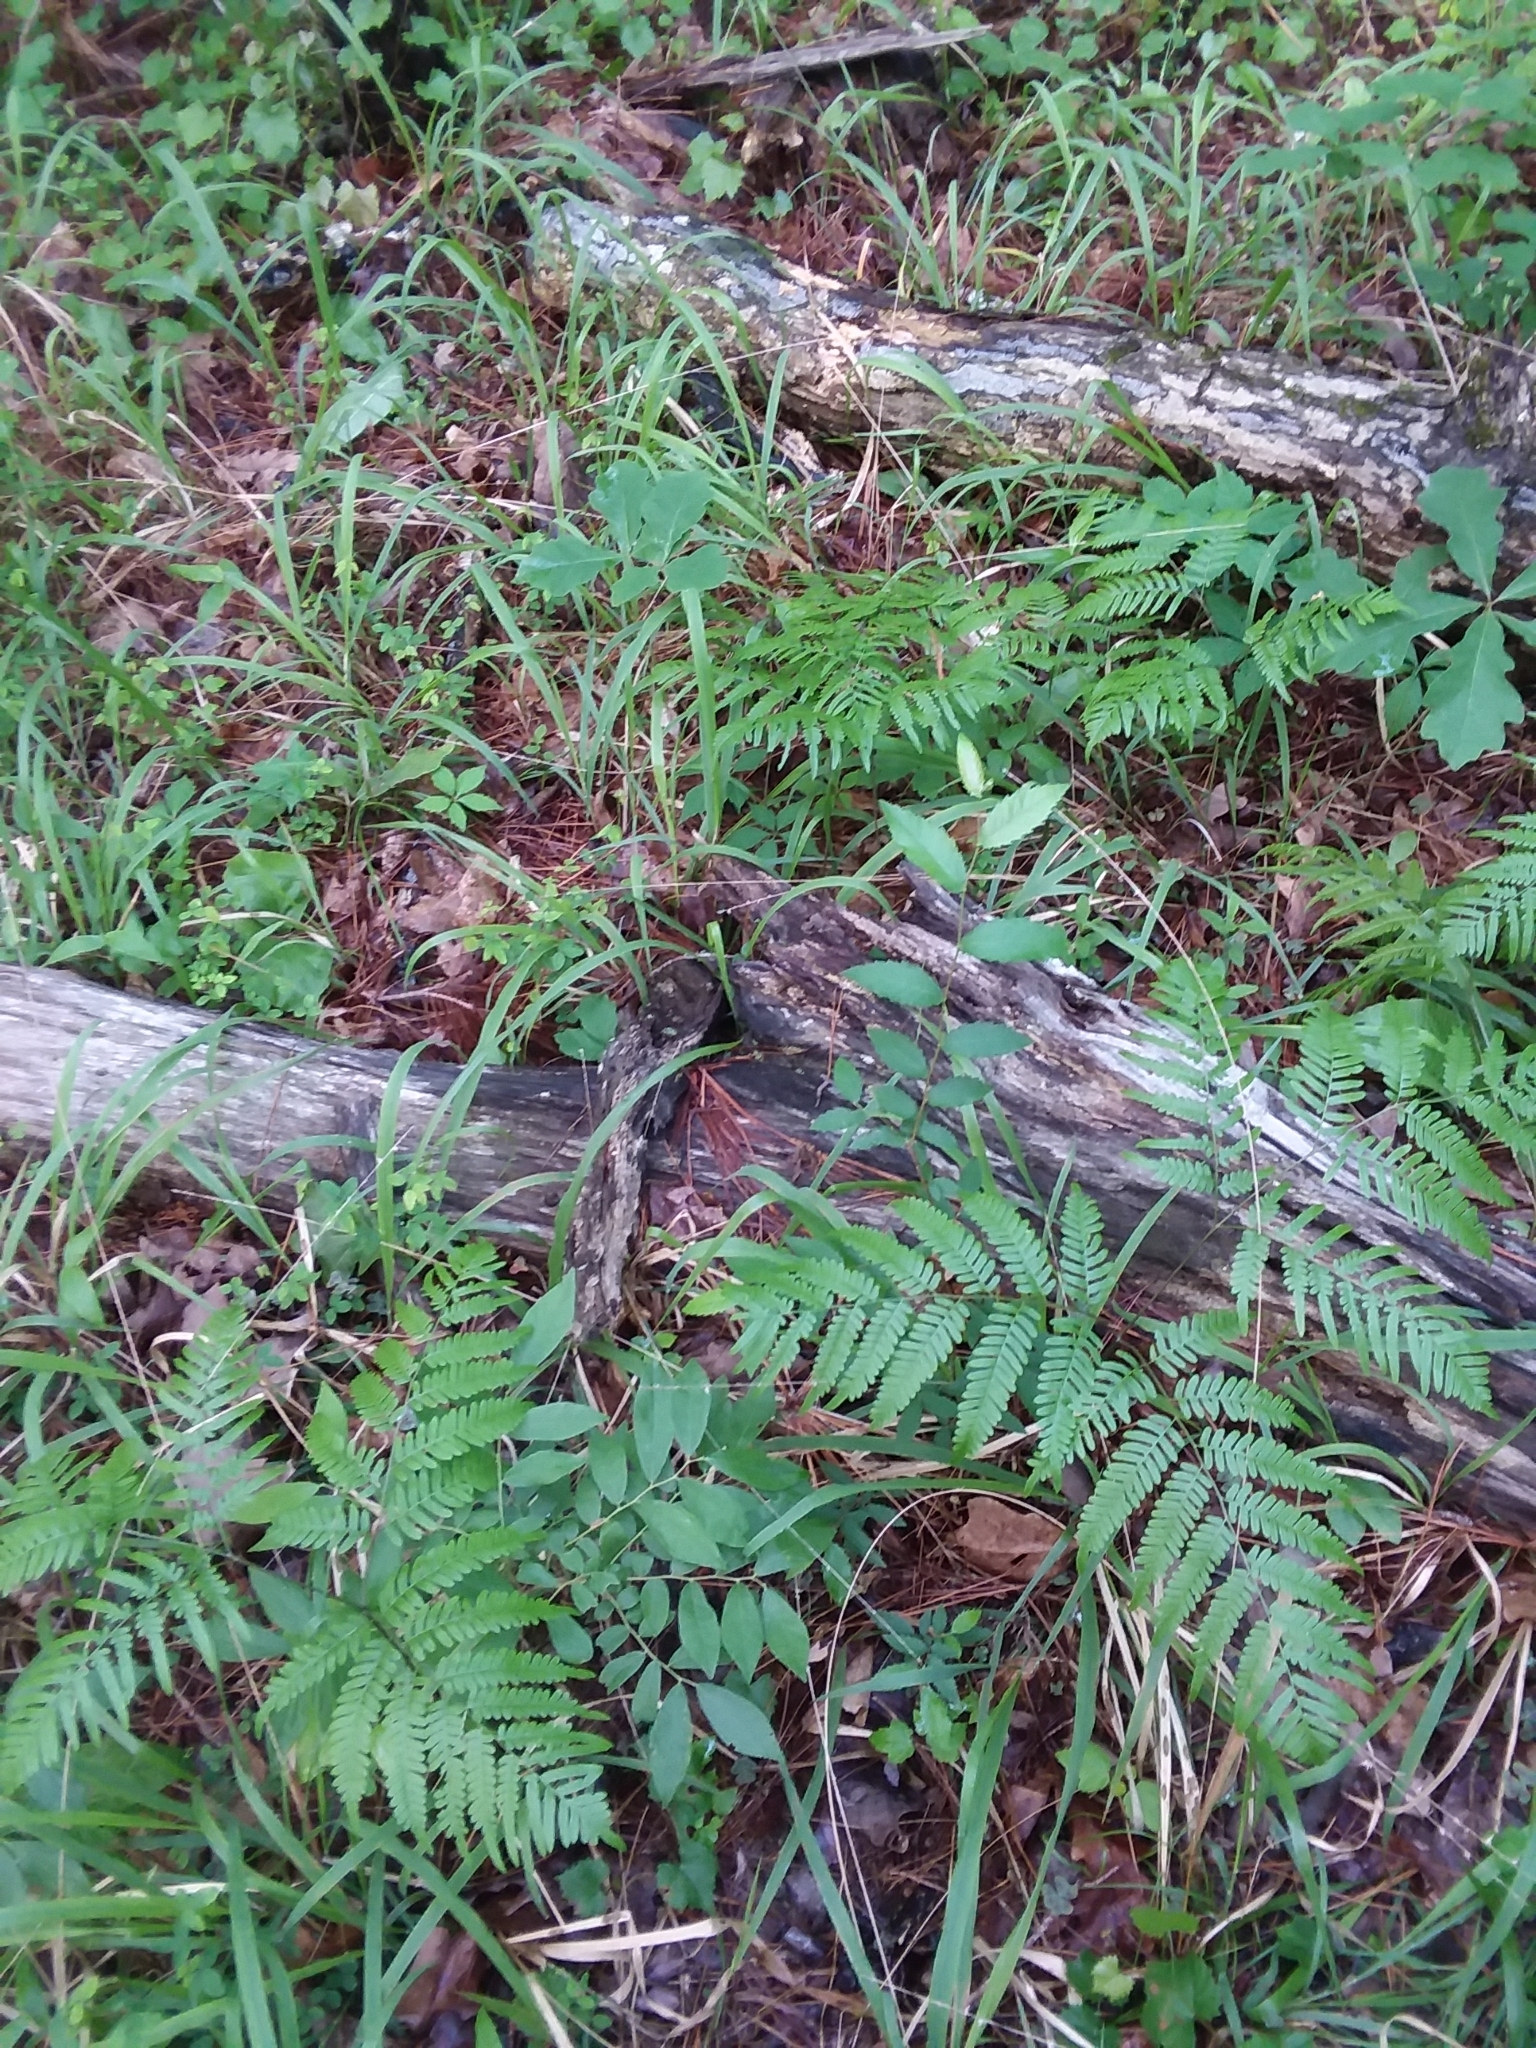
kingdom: Plantae
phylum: Tracheophyta
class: Polypodiopsida
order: Polypodiales
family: Dennstaedtiaceae
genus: Pteridium
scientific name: Pteridium
